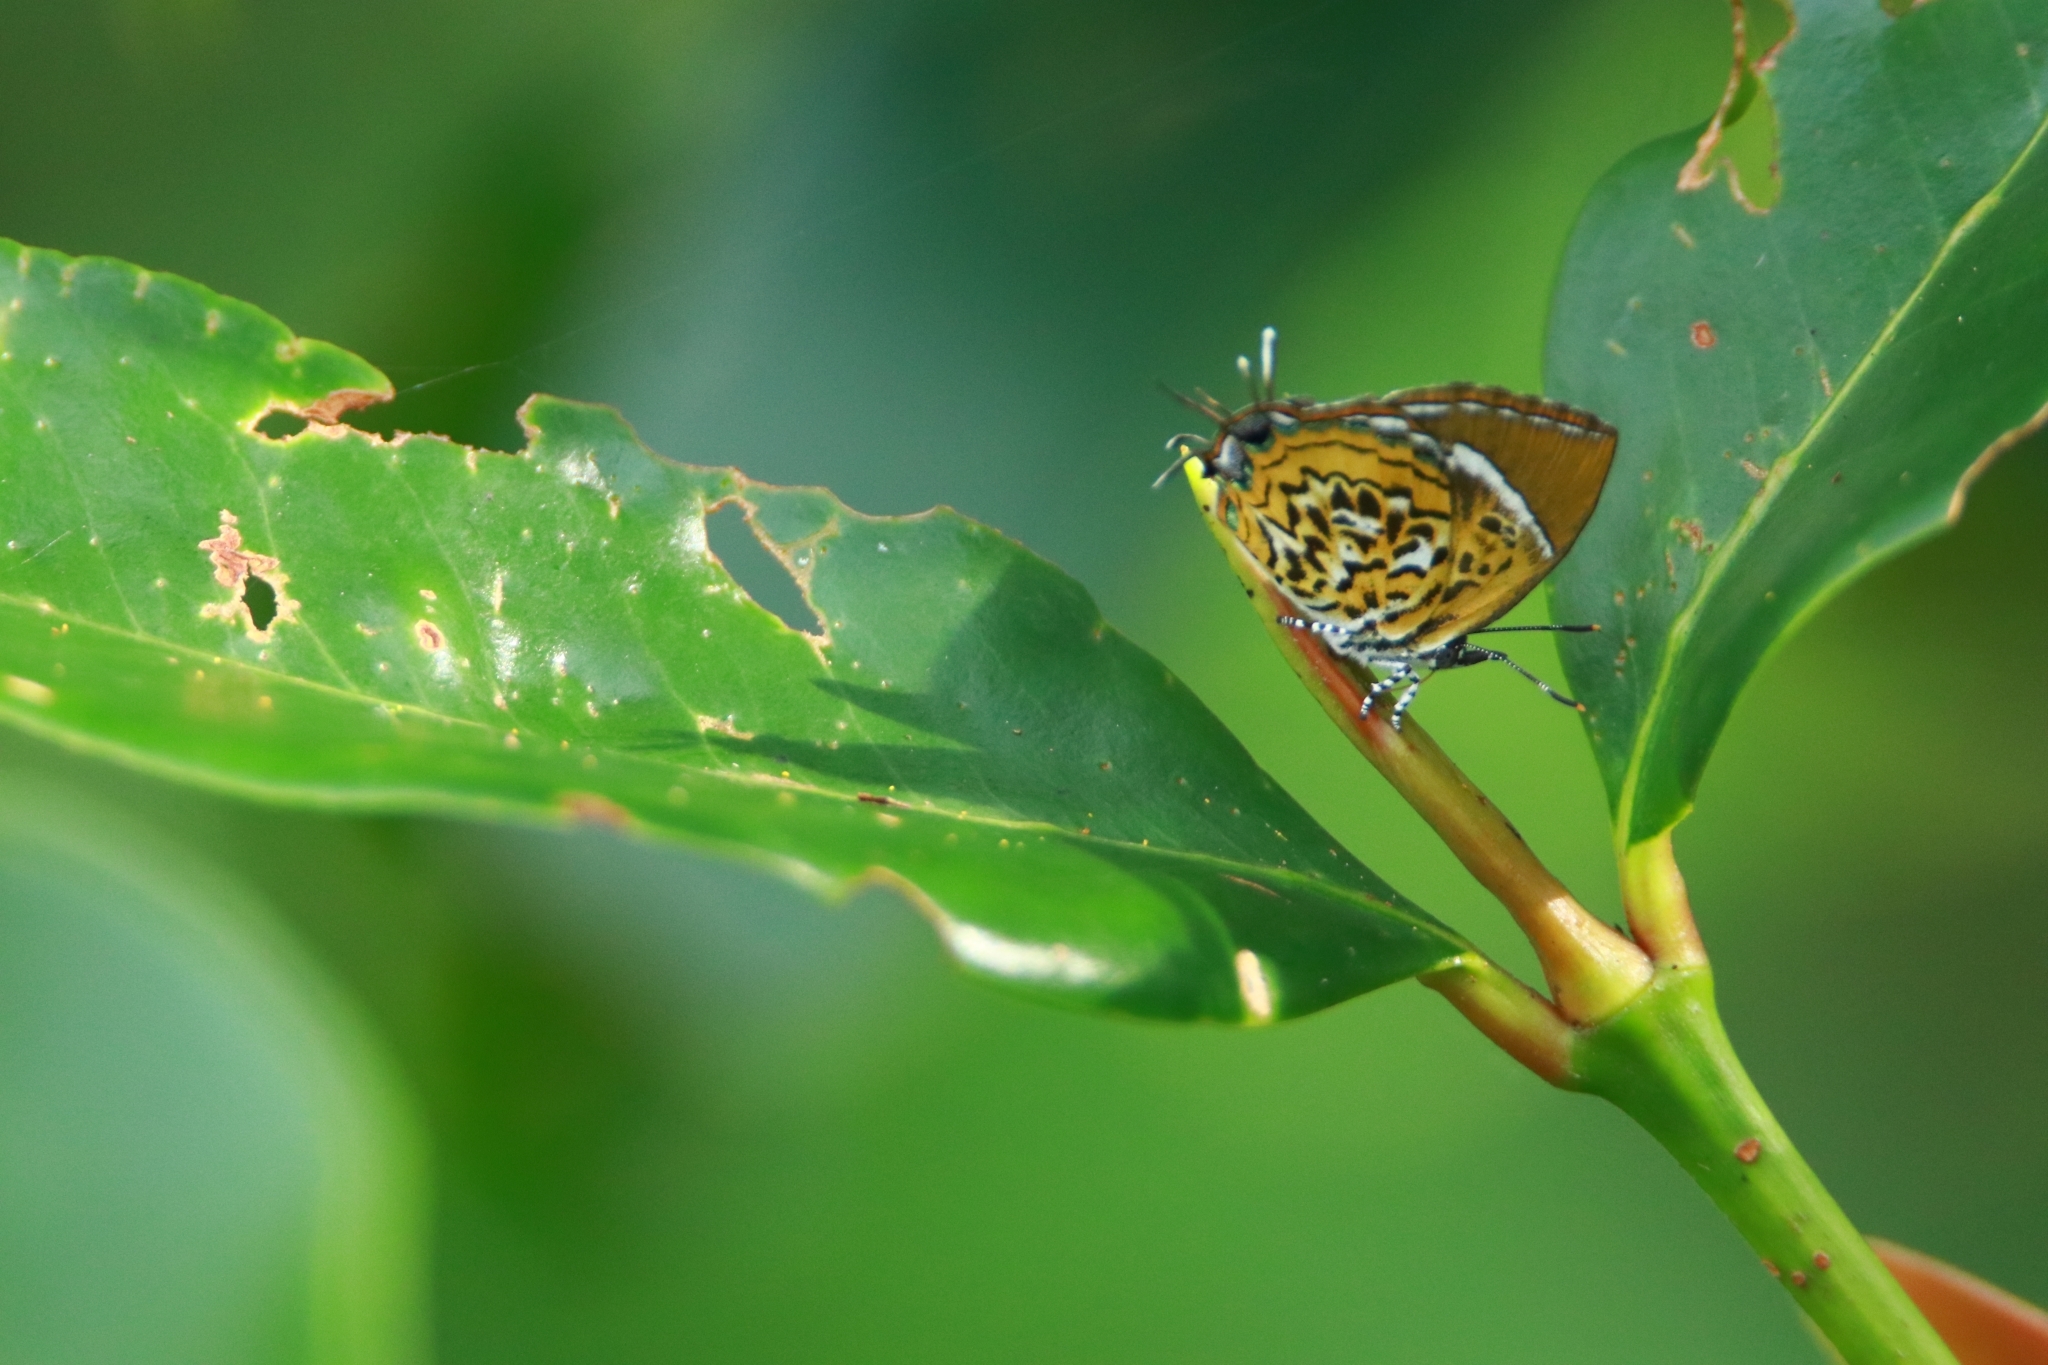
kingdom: Animalia
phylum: Arthropoda
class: Insecta
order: Lepidoptera
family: Lycaenidae
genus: Rathinda
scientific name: Rathinda amor
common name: Monkey puzzle
